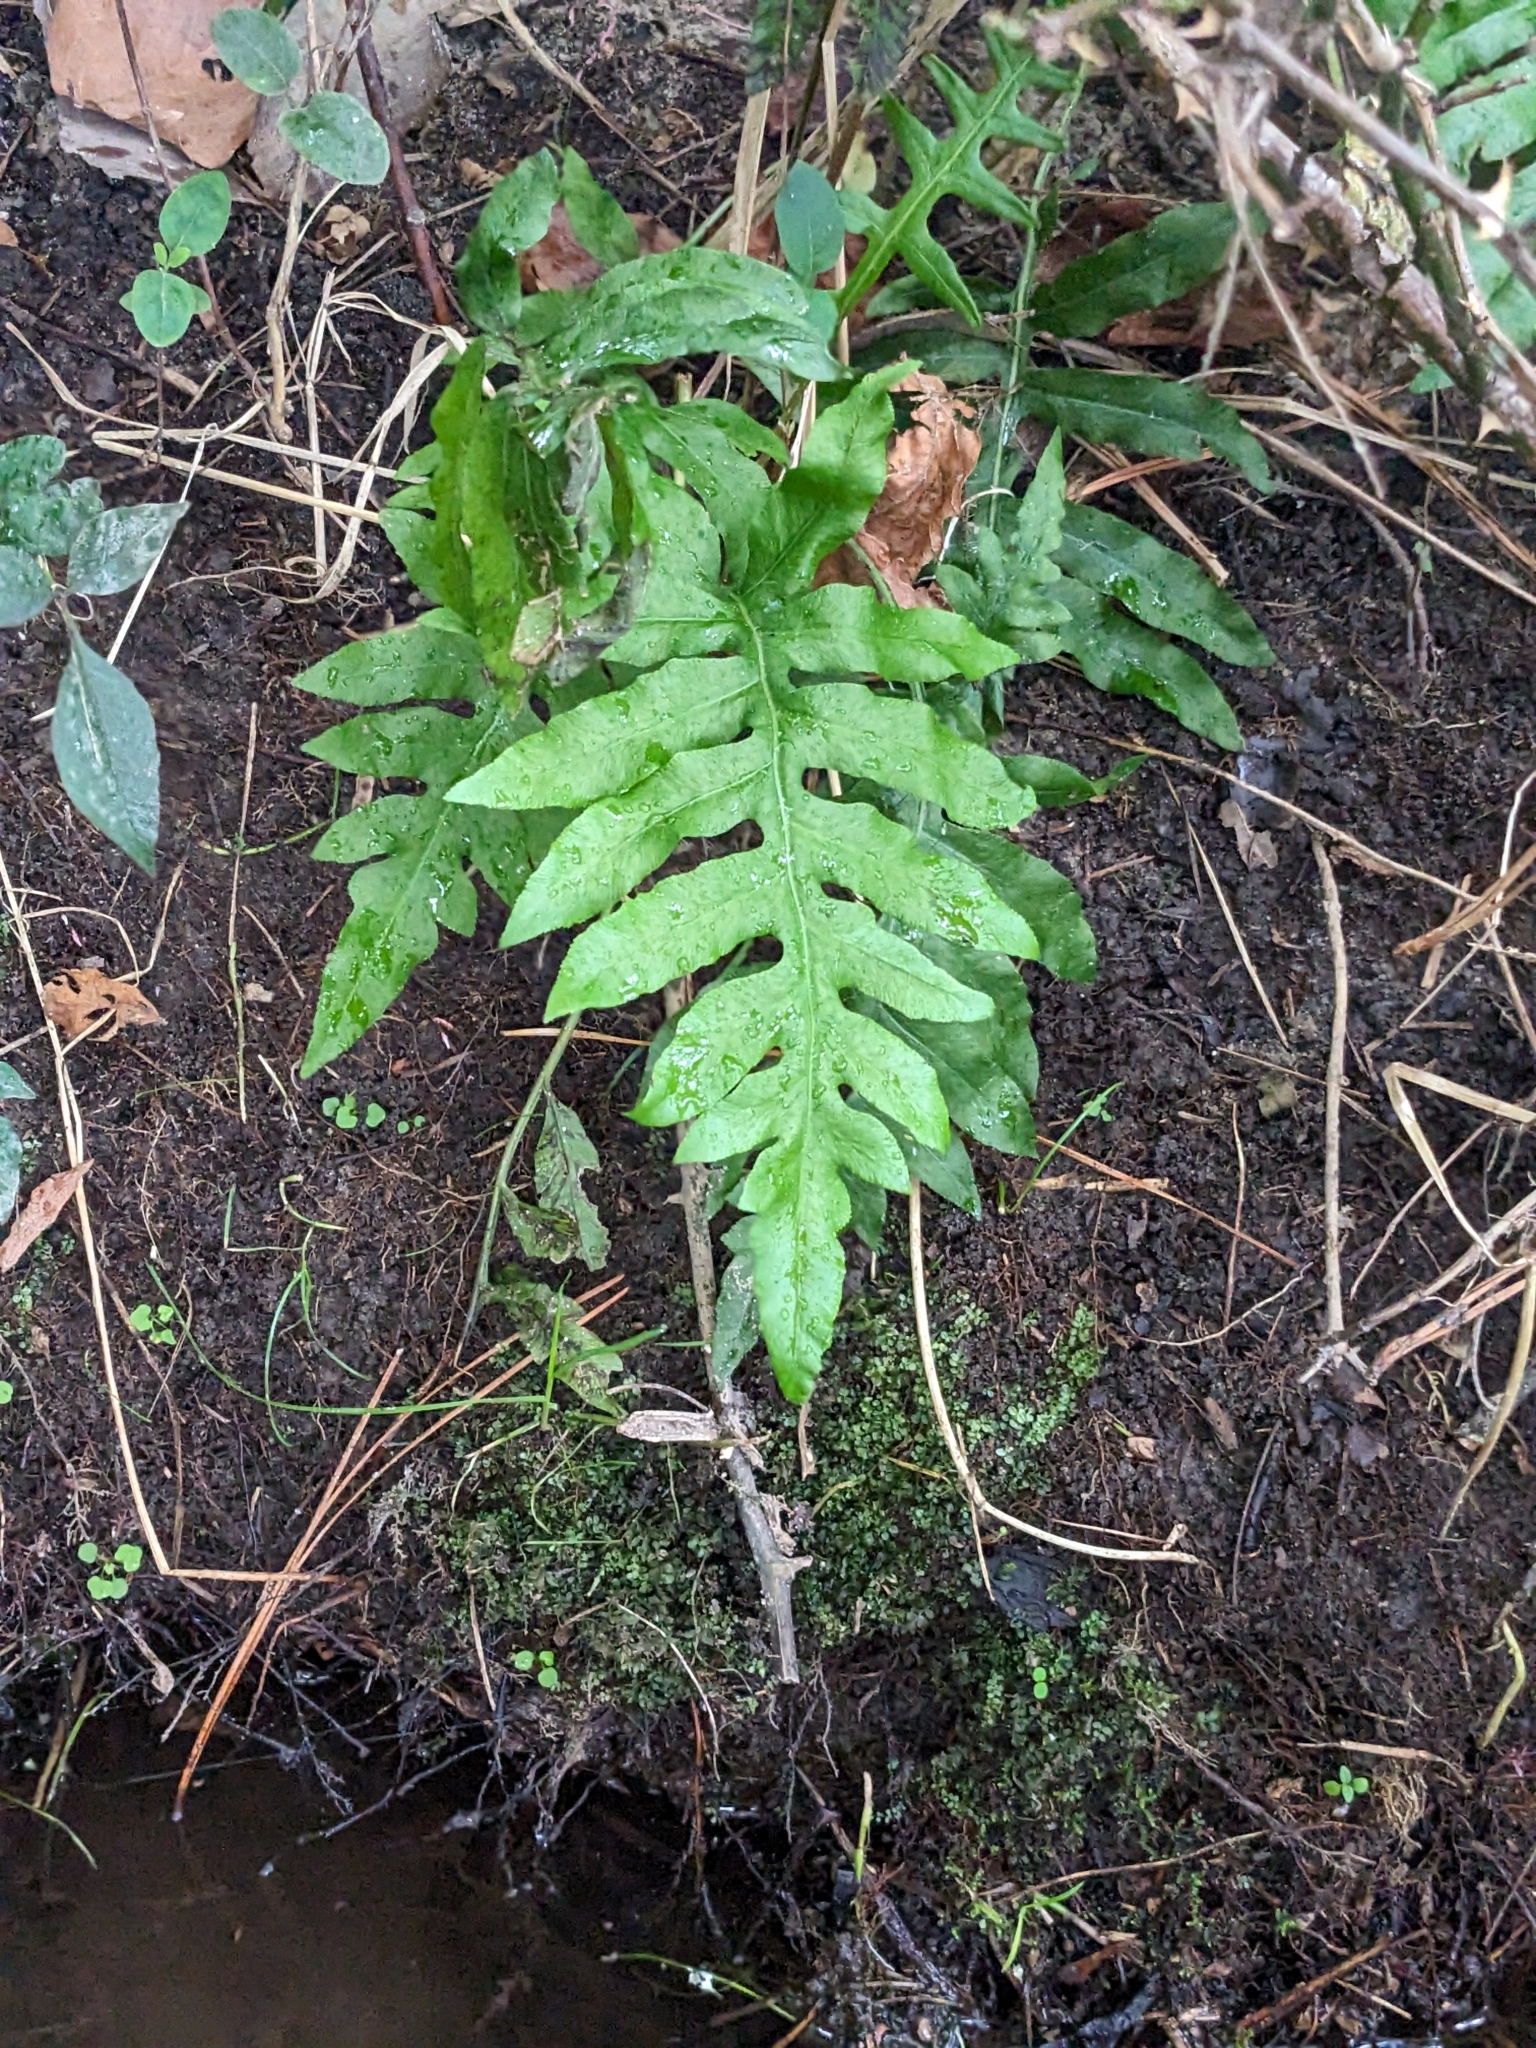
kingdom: Plantae
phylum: Tracheophyta
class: Polypodiopsida
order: Polypodiales
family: Blechnaceae
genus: Lorinseria
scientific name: Lorinseria areolata
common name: Dwarf chain fern
